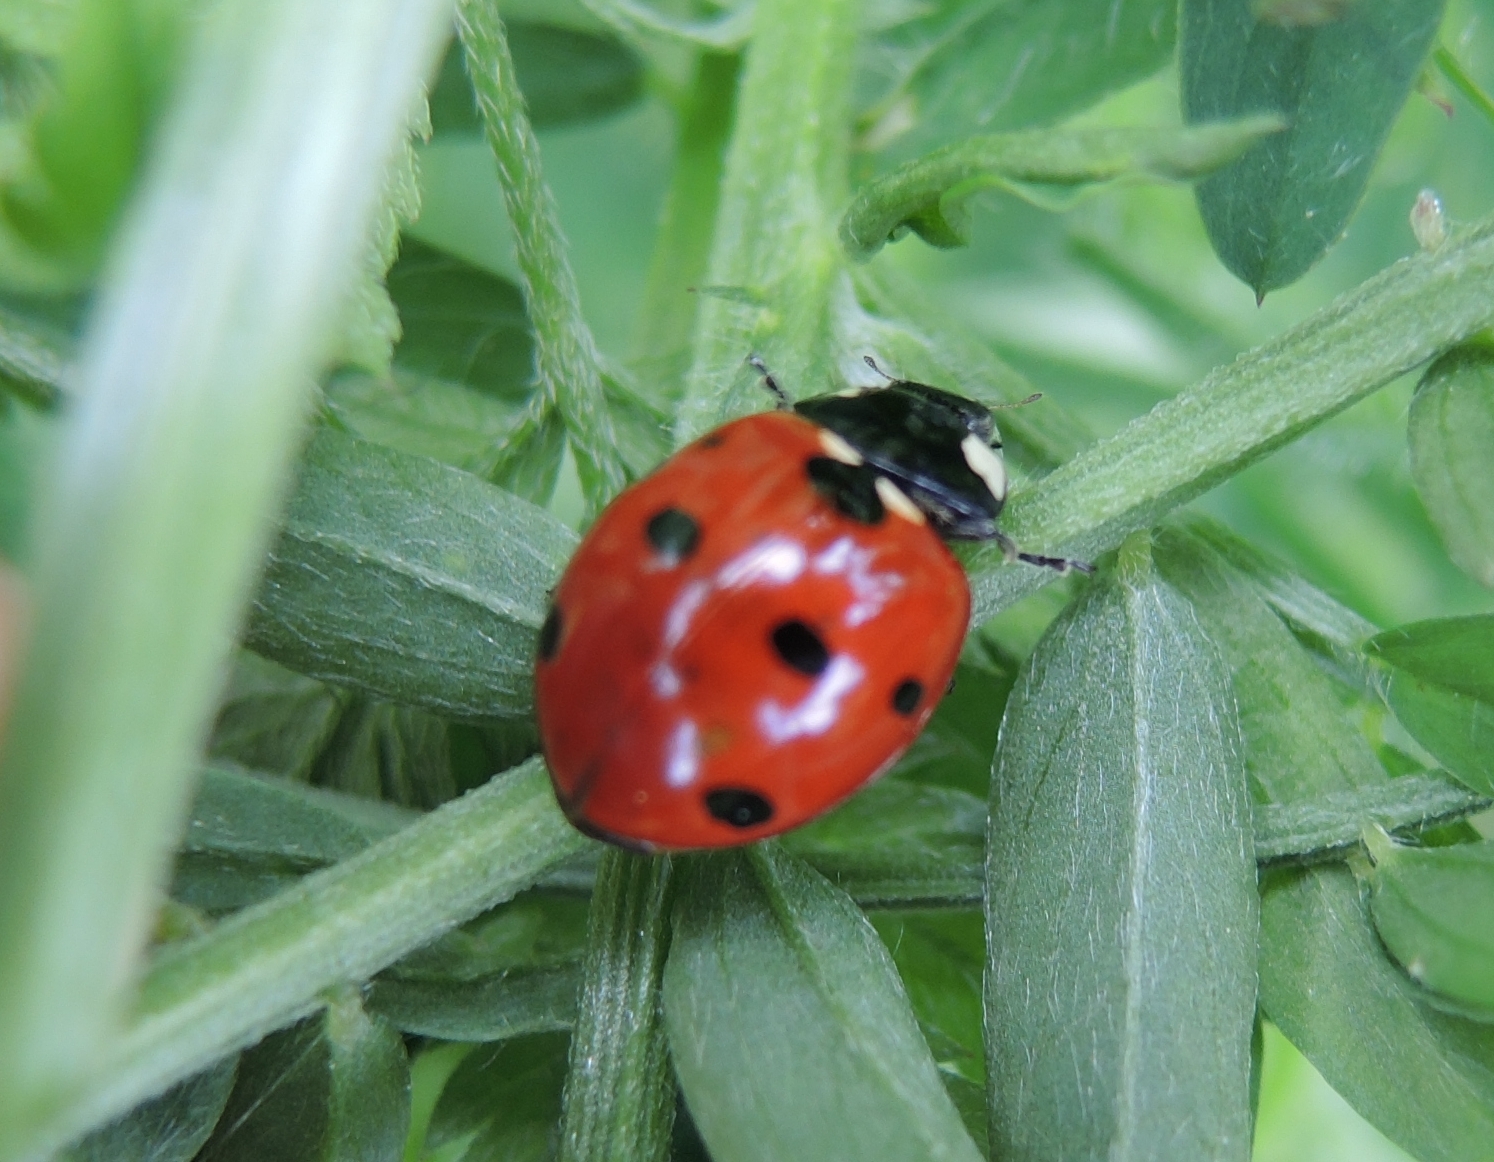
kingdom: Animalia
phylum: Arthropoda
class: Insecta
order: Coleoptera
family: Coccinellidae
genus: Coccinella
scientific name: Coccinella septempunctata
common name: Sevenspotted lady beetle
